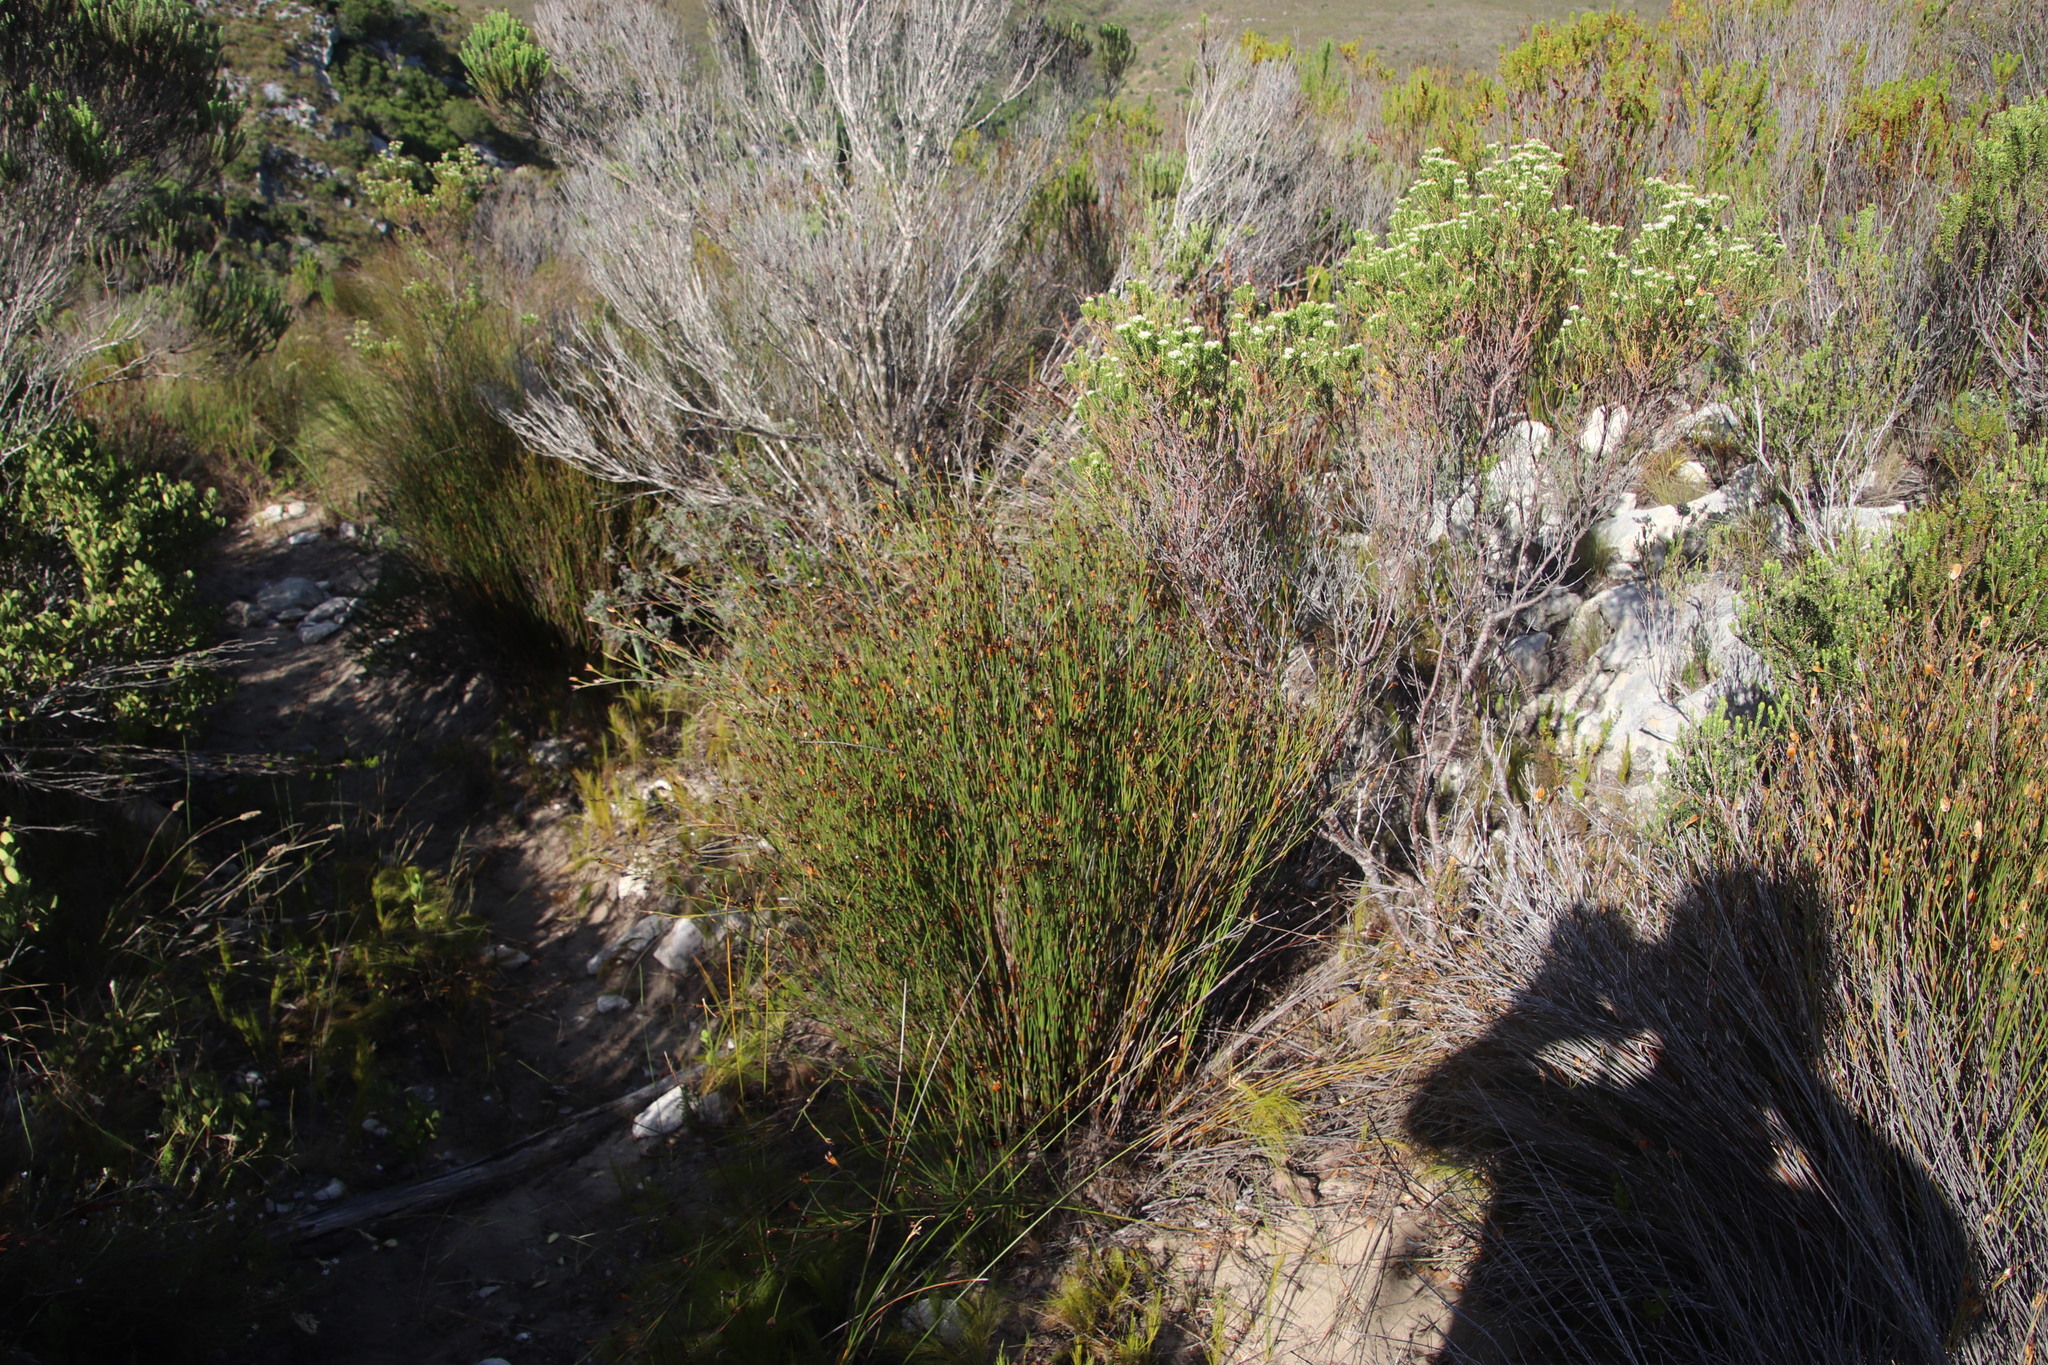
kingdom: Plantae
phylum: Tracheophyta
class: Liliopsida
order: Poales
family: Restionaceae
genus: Willdenowia
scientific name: Willdenowia teres
